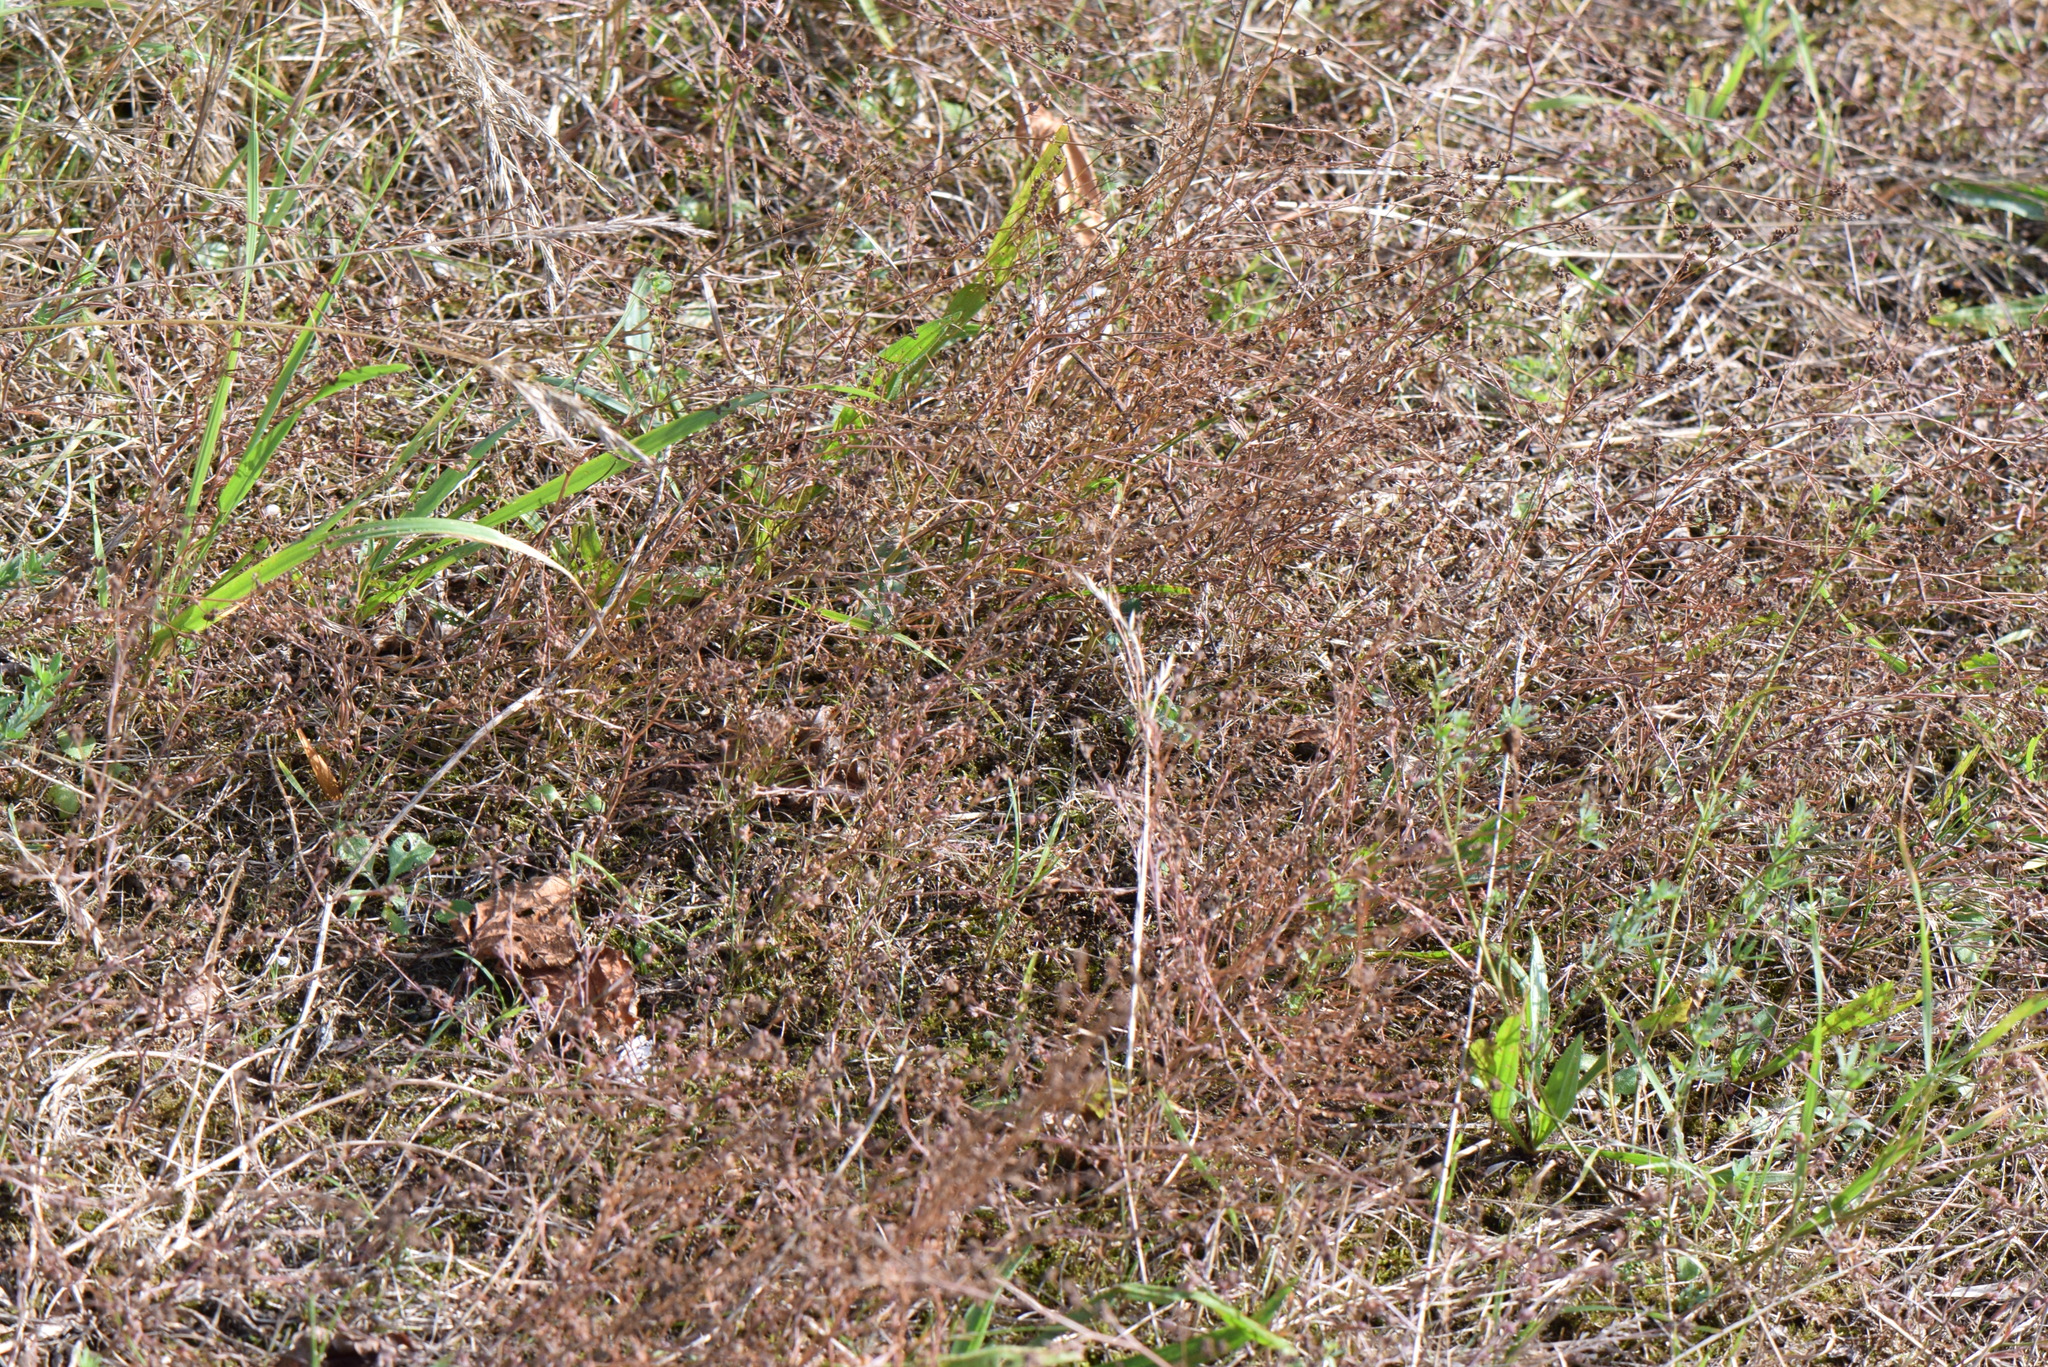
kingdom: Plantae
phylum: Tracheophyta
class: Magnoliopsida
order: Apiales
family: Apiaceae
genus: Bupleurum
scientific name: Bupleurum tenuissimum
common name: Slender hare's-ear
